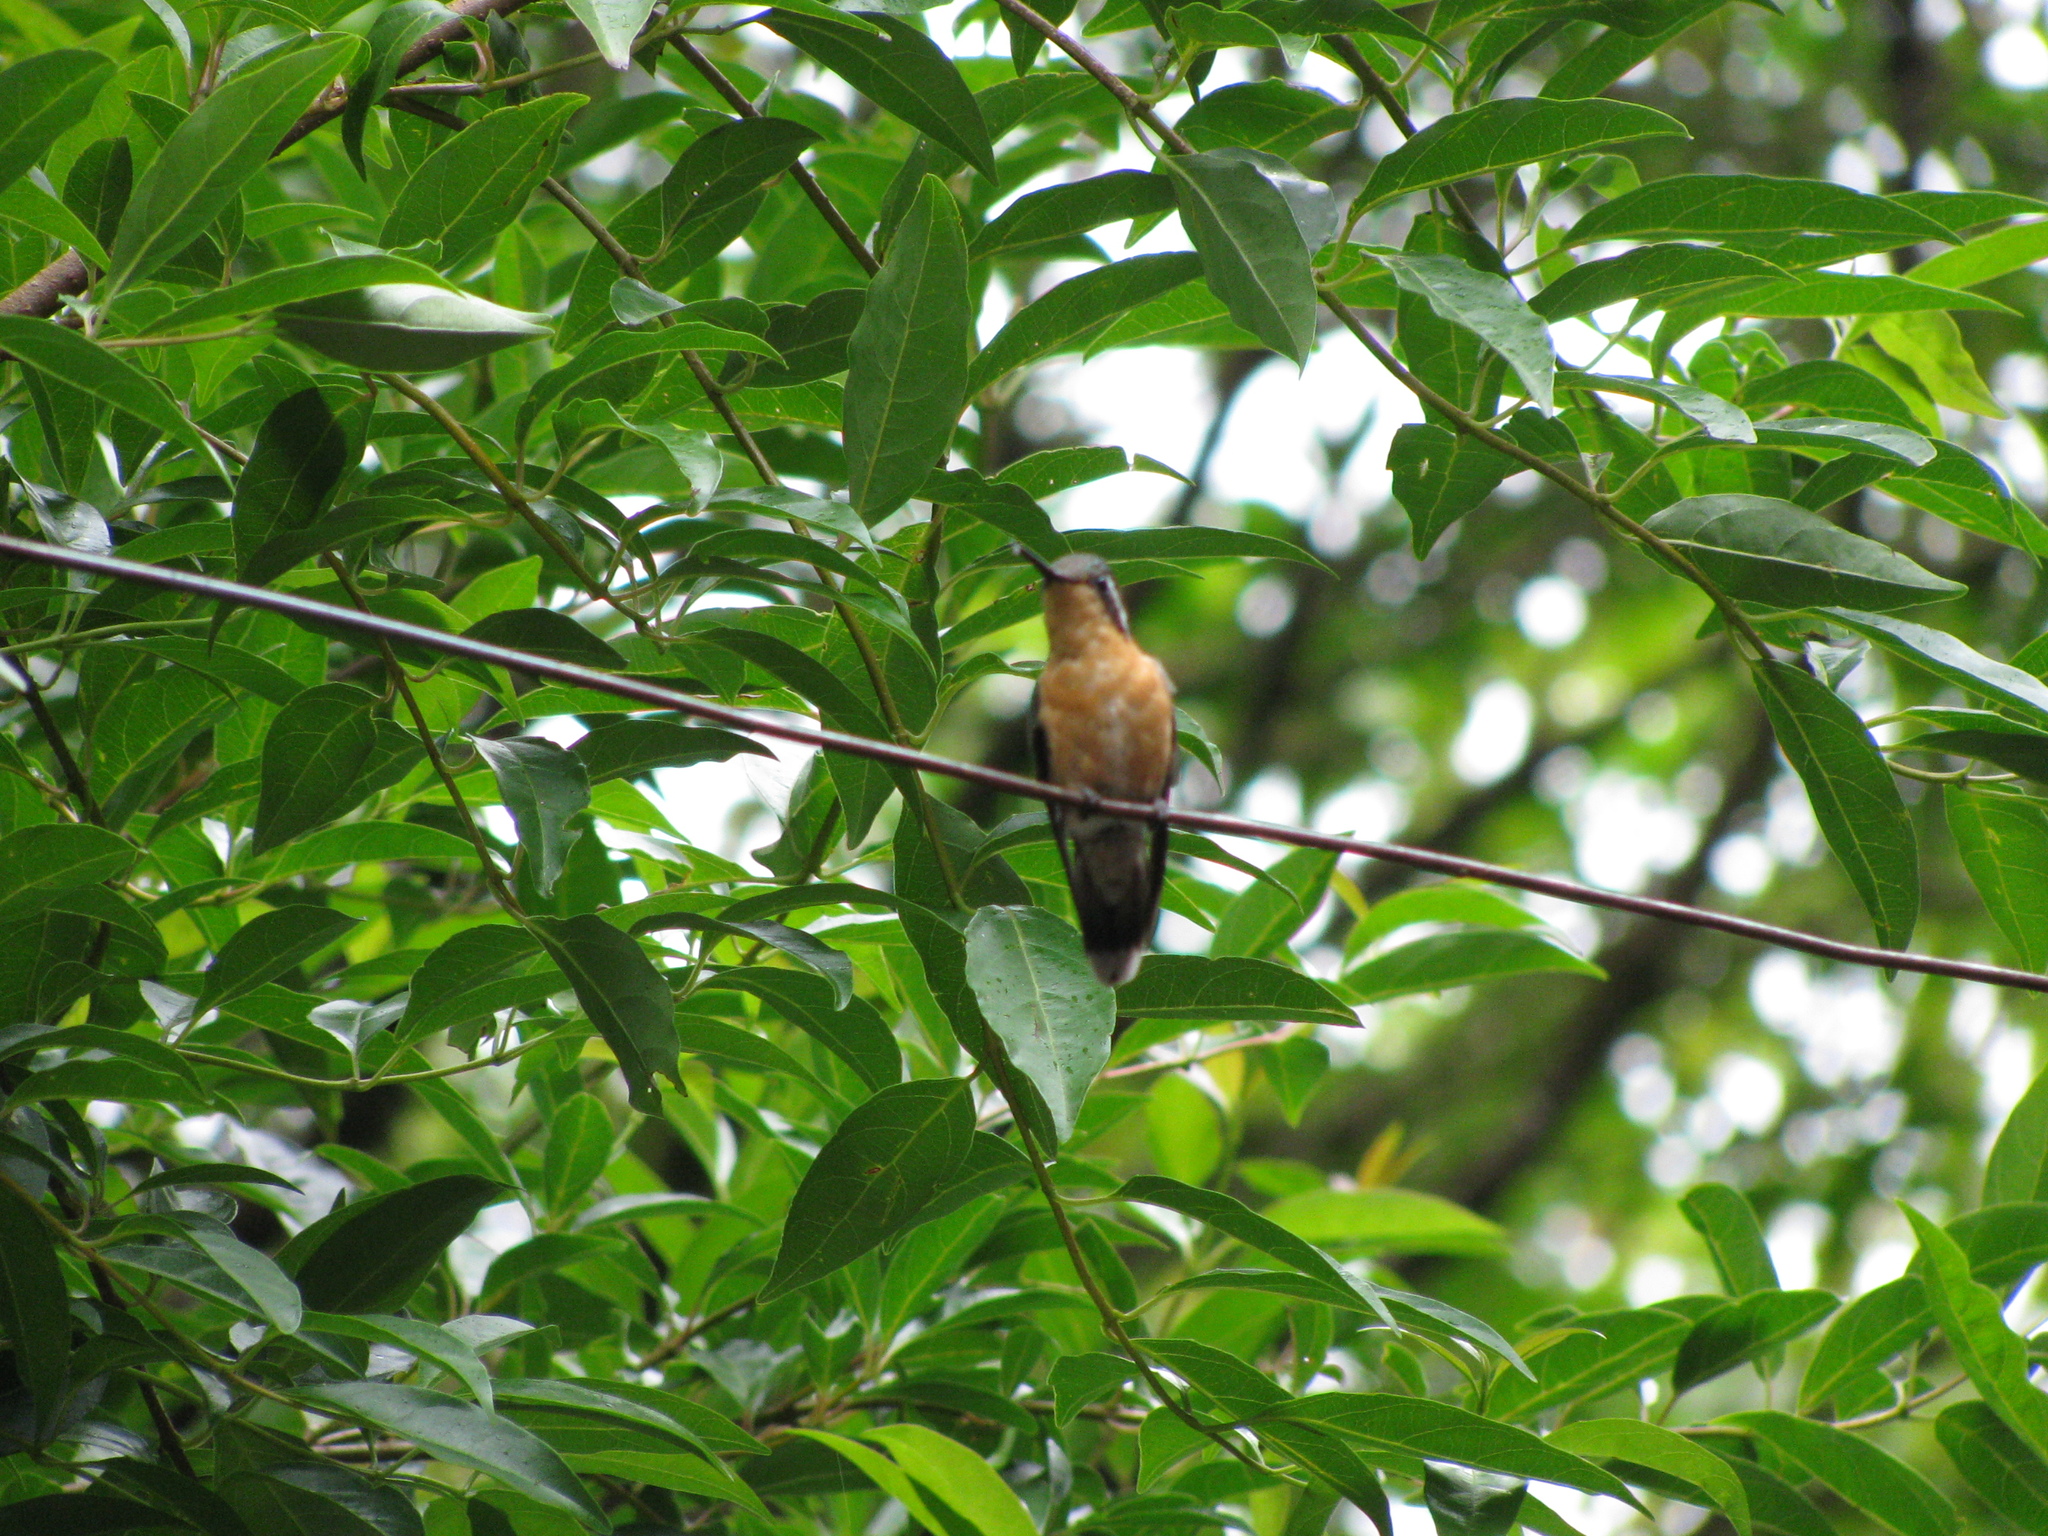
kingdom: Animalia
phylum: Chordata
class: Aves
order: Apodiformes
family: Trochilidae
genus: Lampornis
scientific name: Lampornis calolaemus
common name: Purple-throated mountain-gem
